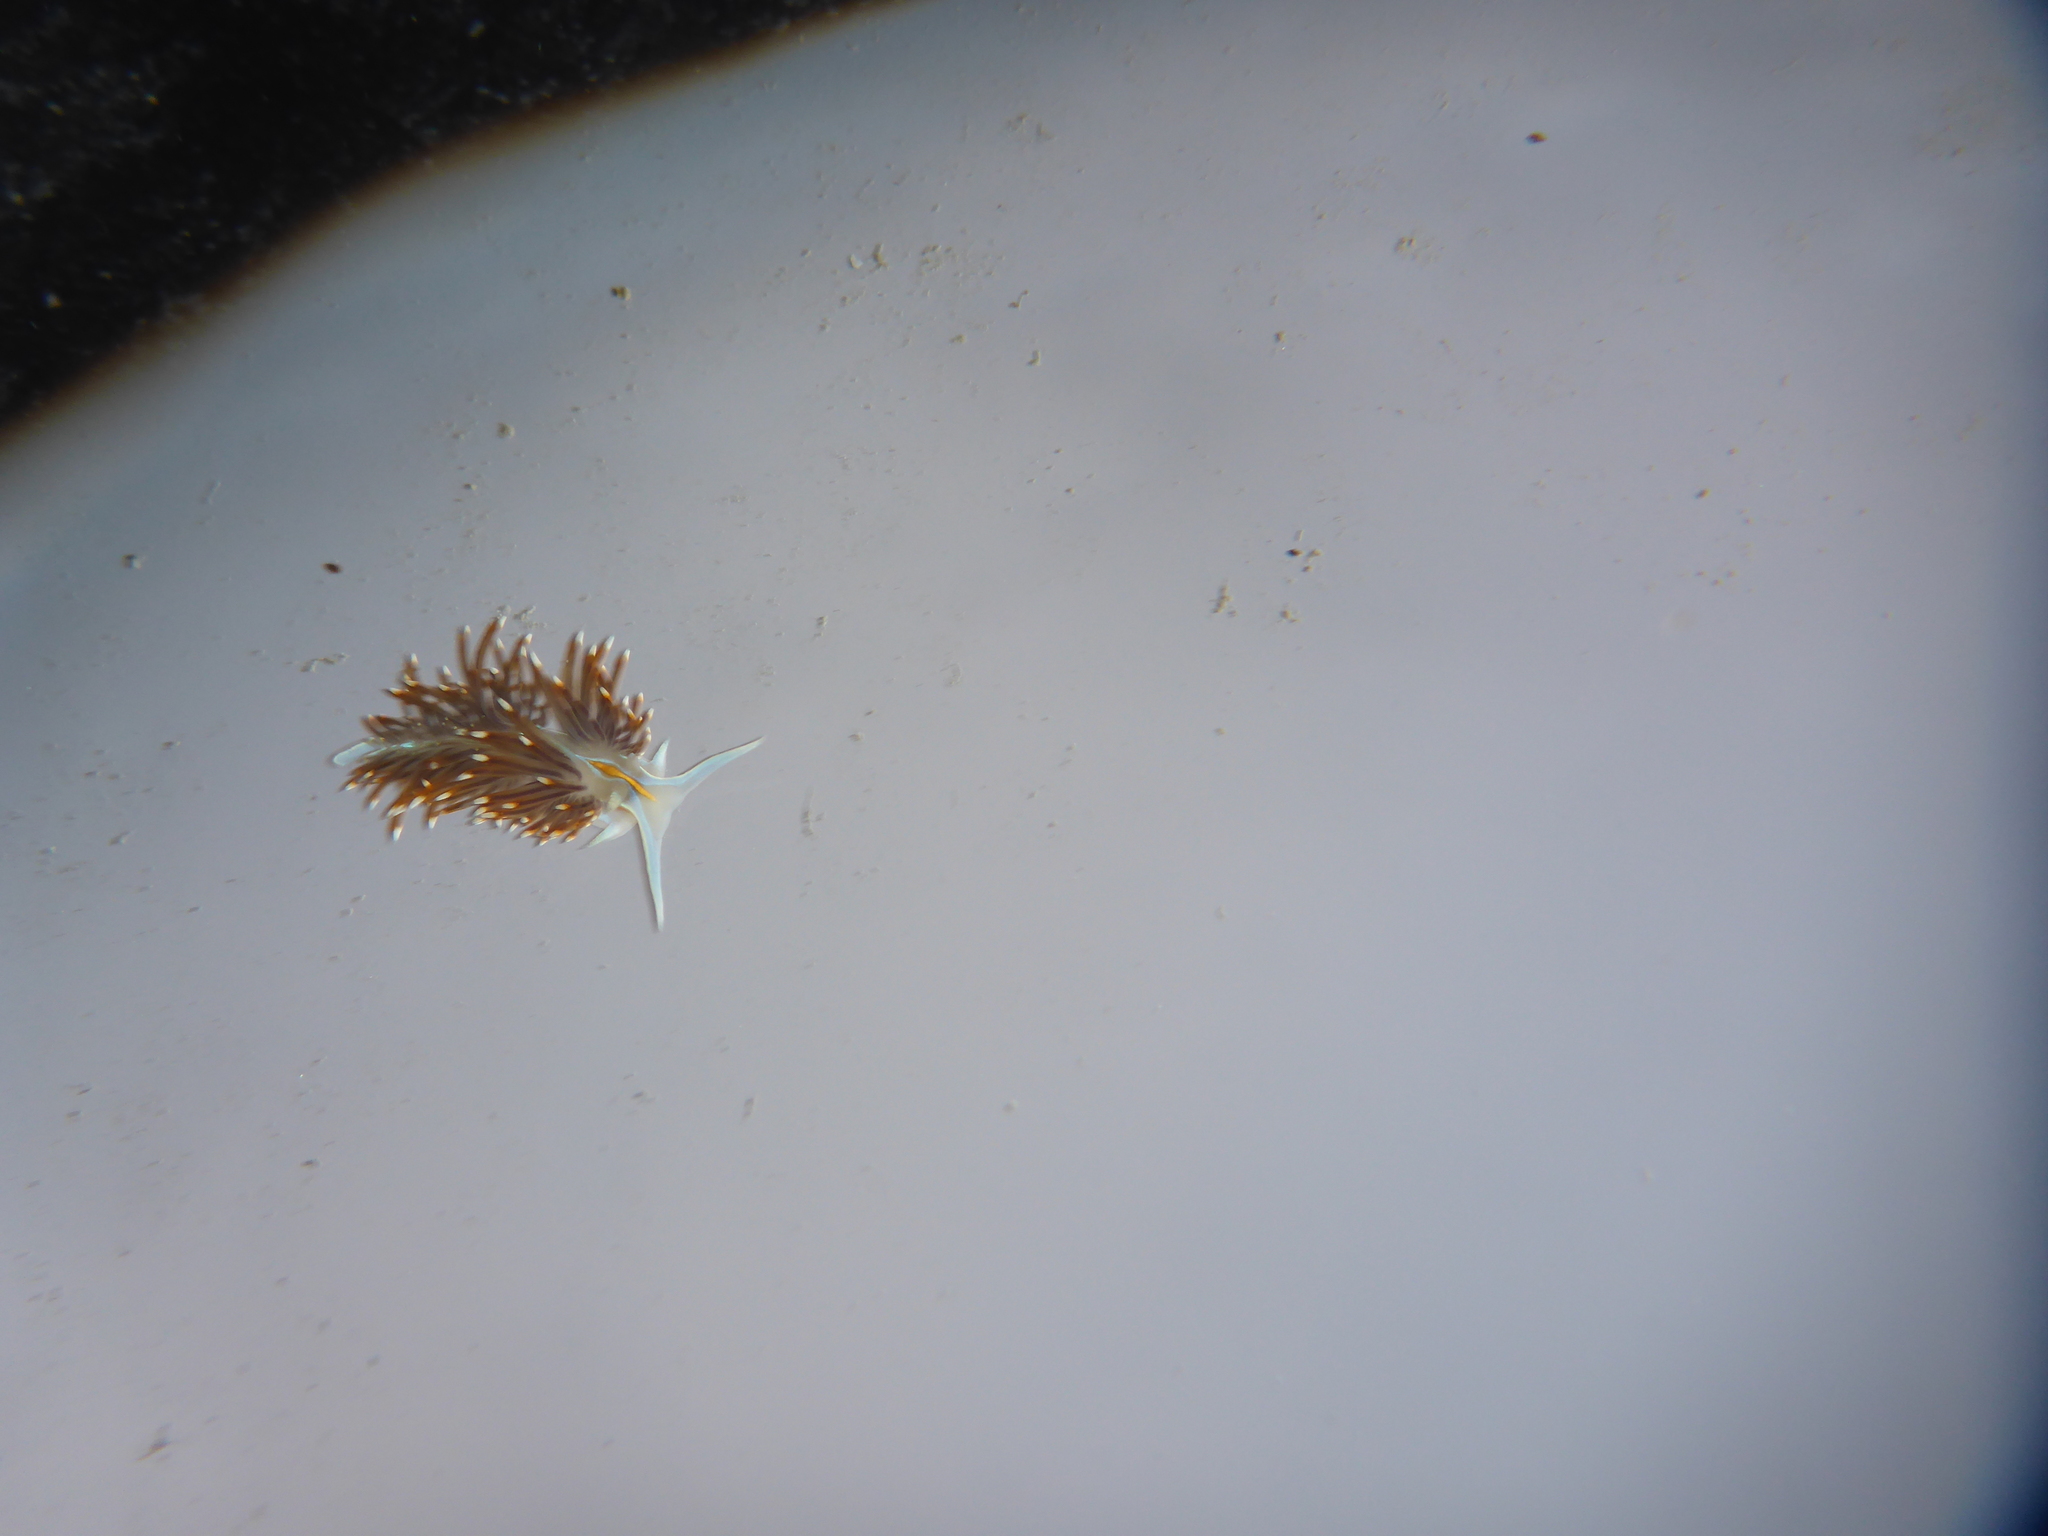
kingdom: Animalia
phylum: Mollusca
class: Gastropoda
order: Nudibranchia
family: Myrrhinidae
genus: Hermissenda
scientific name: Hermissenda opalescens
